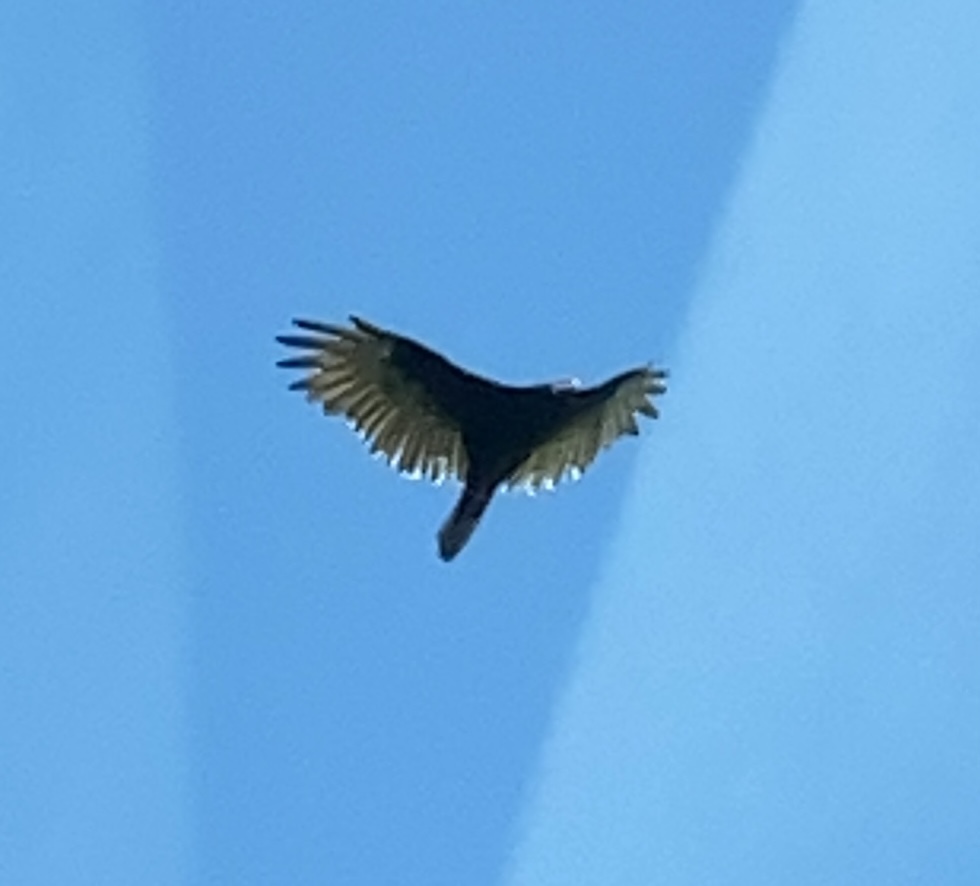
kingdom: Animalia
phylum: Chordata
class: Aves
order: Accipitriformes
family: Cathartidae
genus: Cathartes
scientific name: Cathartes aura
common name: Turkey vulture
